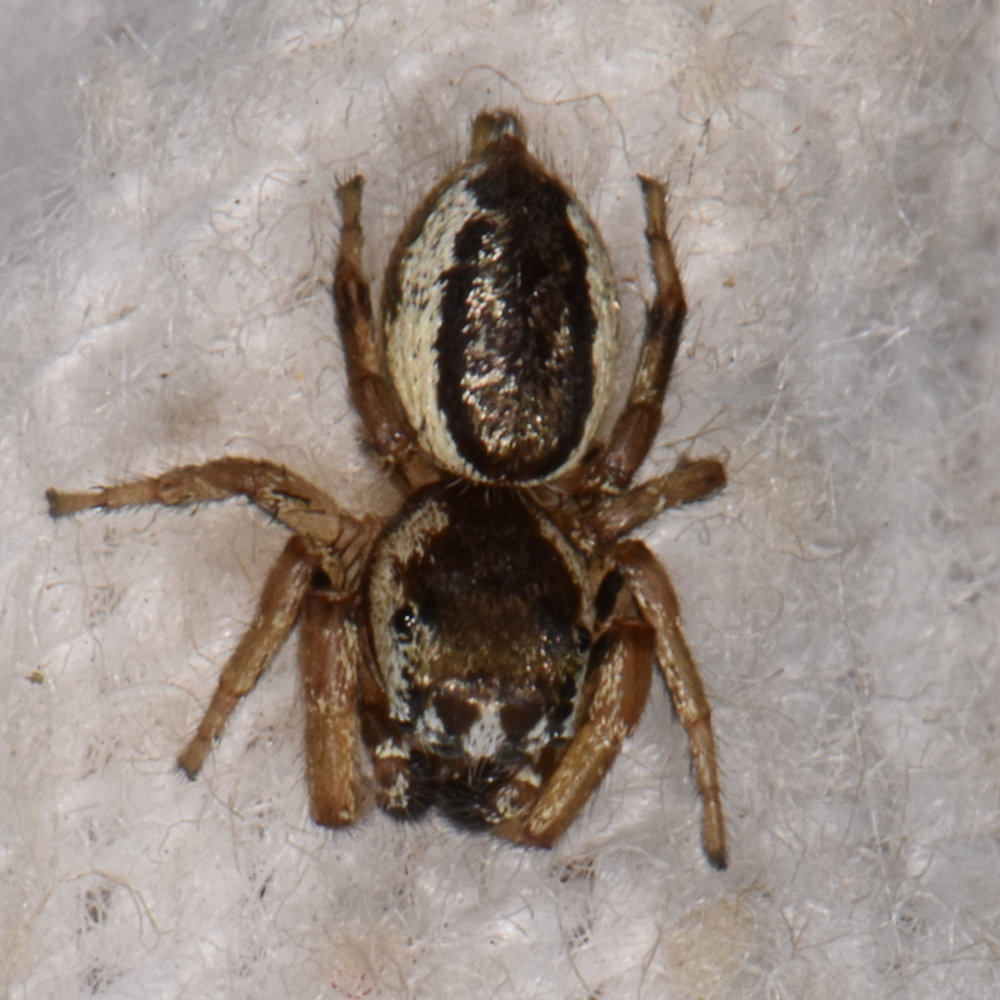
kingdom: Animalia
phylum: Arthropoda
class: Arachnida
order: Araneae
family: Salticidae
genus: Pelegrina
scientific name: Pelegrina flavipes
